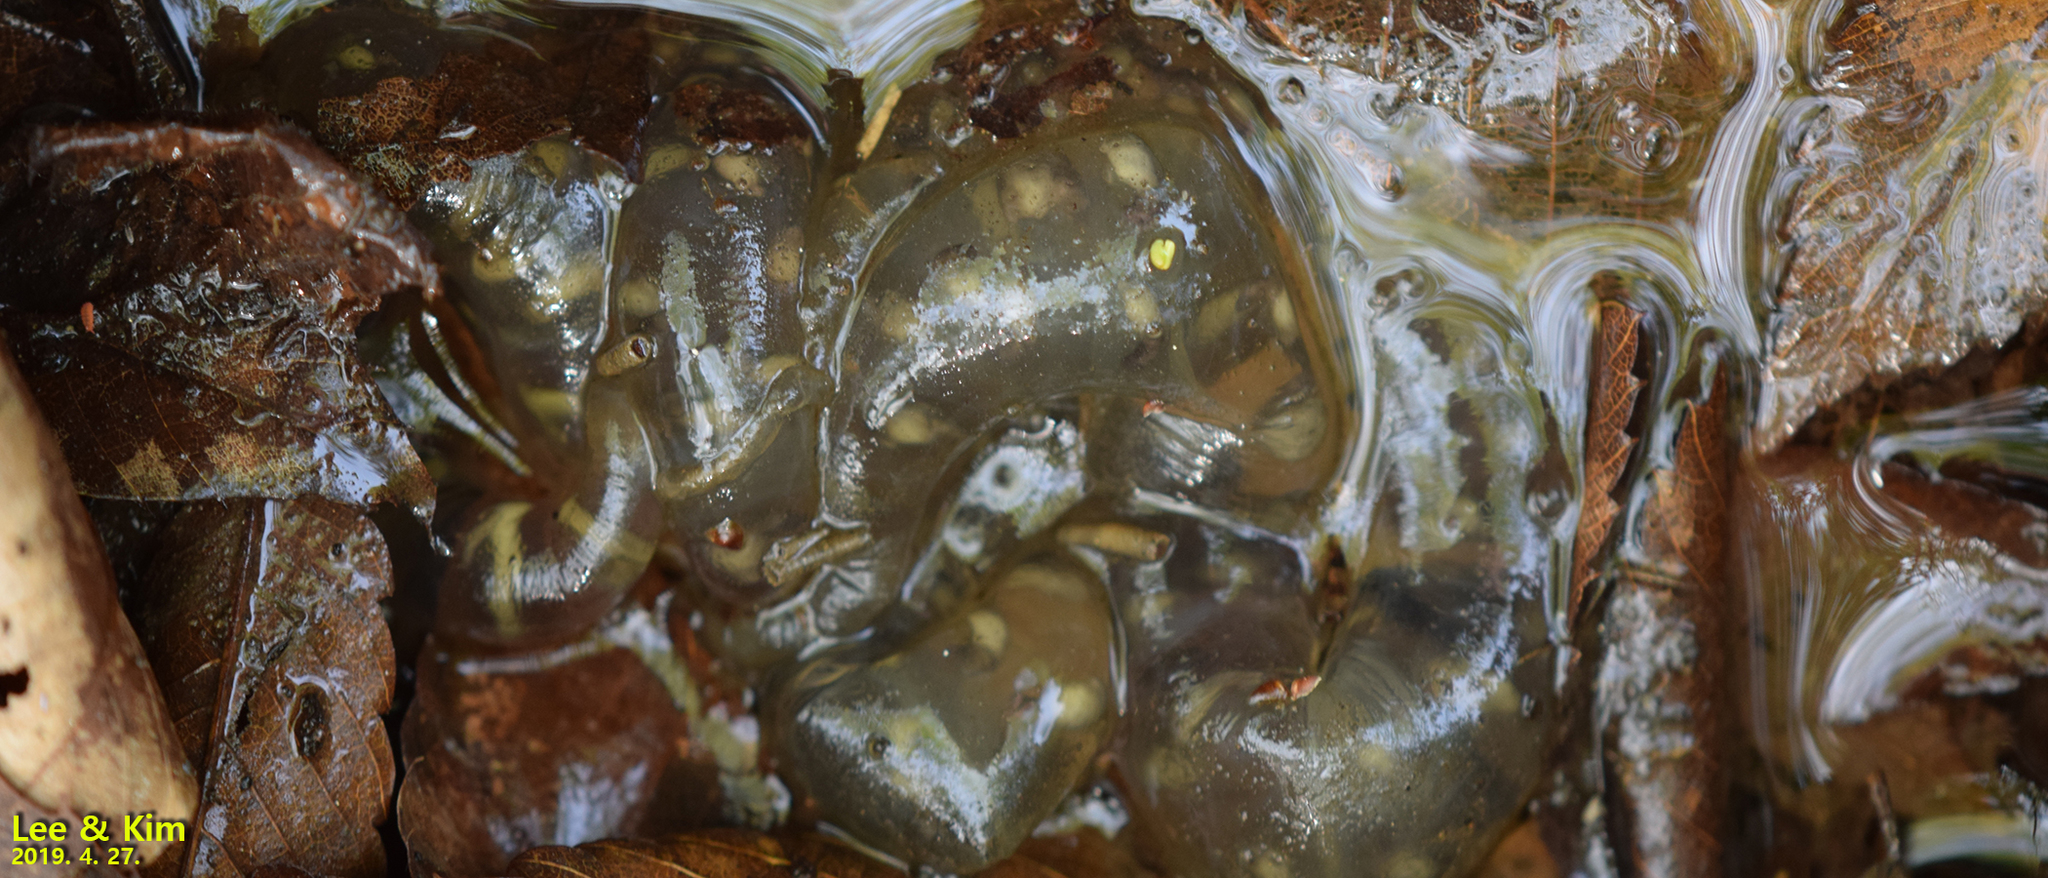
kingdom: Animalia
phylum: Chordata
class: Amphibia
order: Caudata
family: Hynobiidae
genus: Hynobius
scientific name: Hynobius leechii
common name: Gensan salamander
